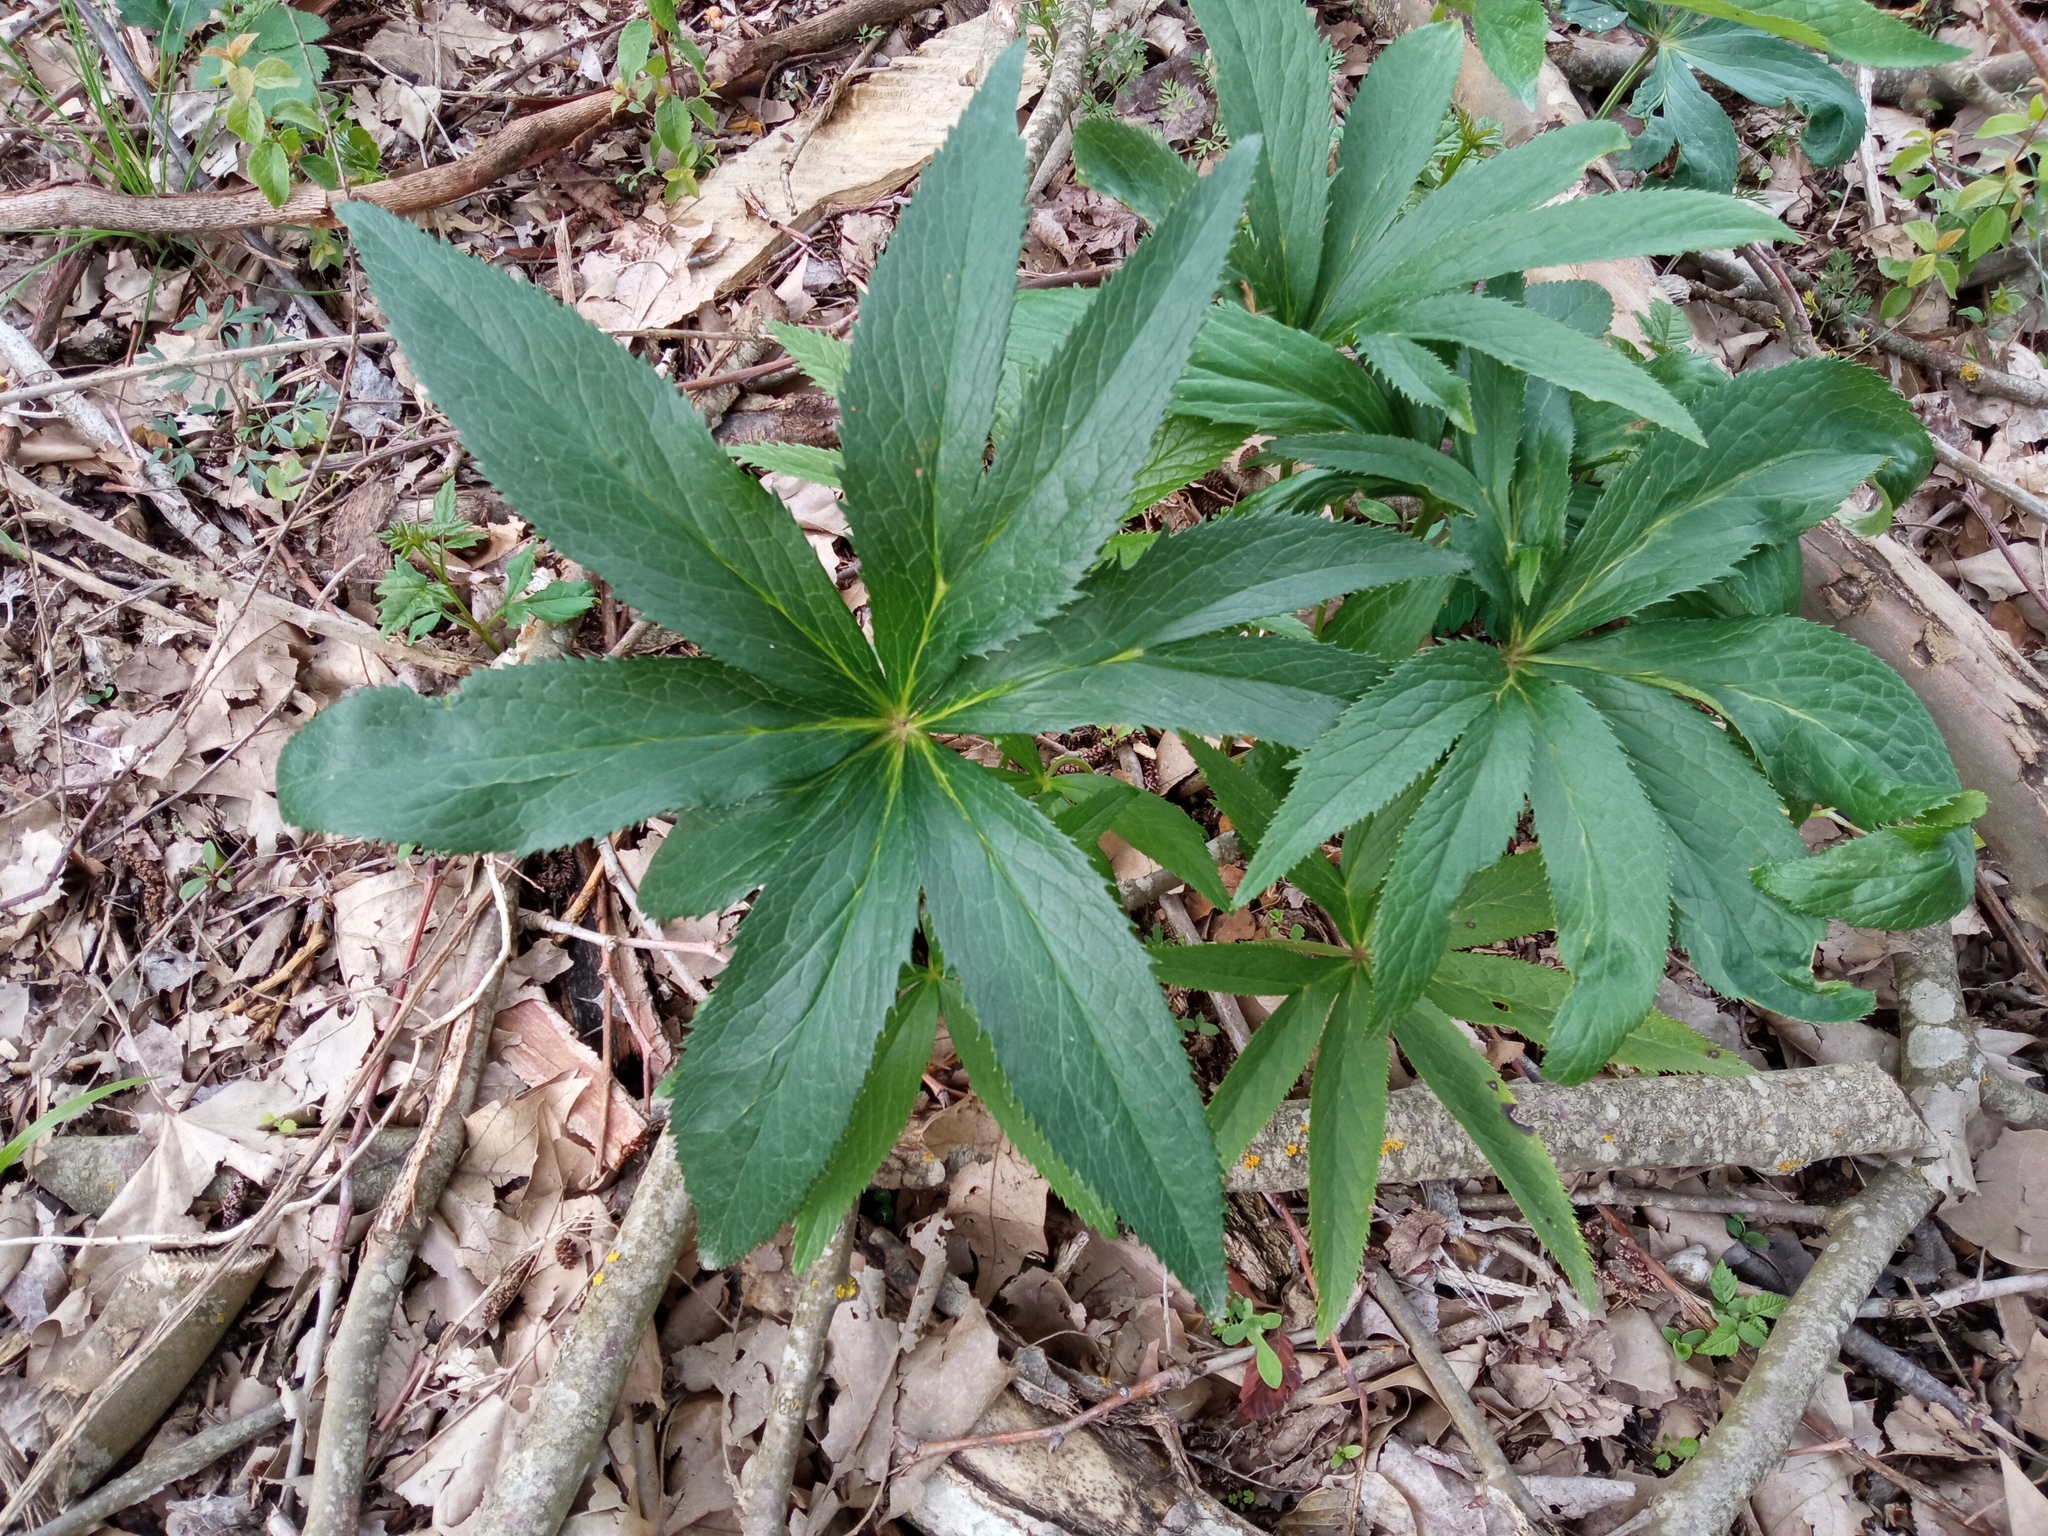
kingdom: Plantae
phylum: Tracheophyta
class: Magnoliopsida
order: Ranunculales
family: Ranunculaceae
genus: Helleborus
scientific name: Helleborus viridis
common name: Green hellebore
